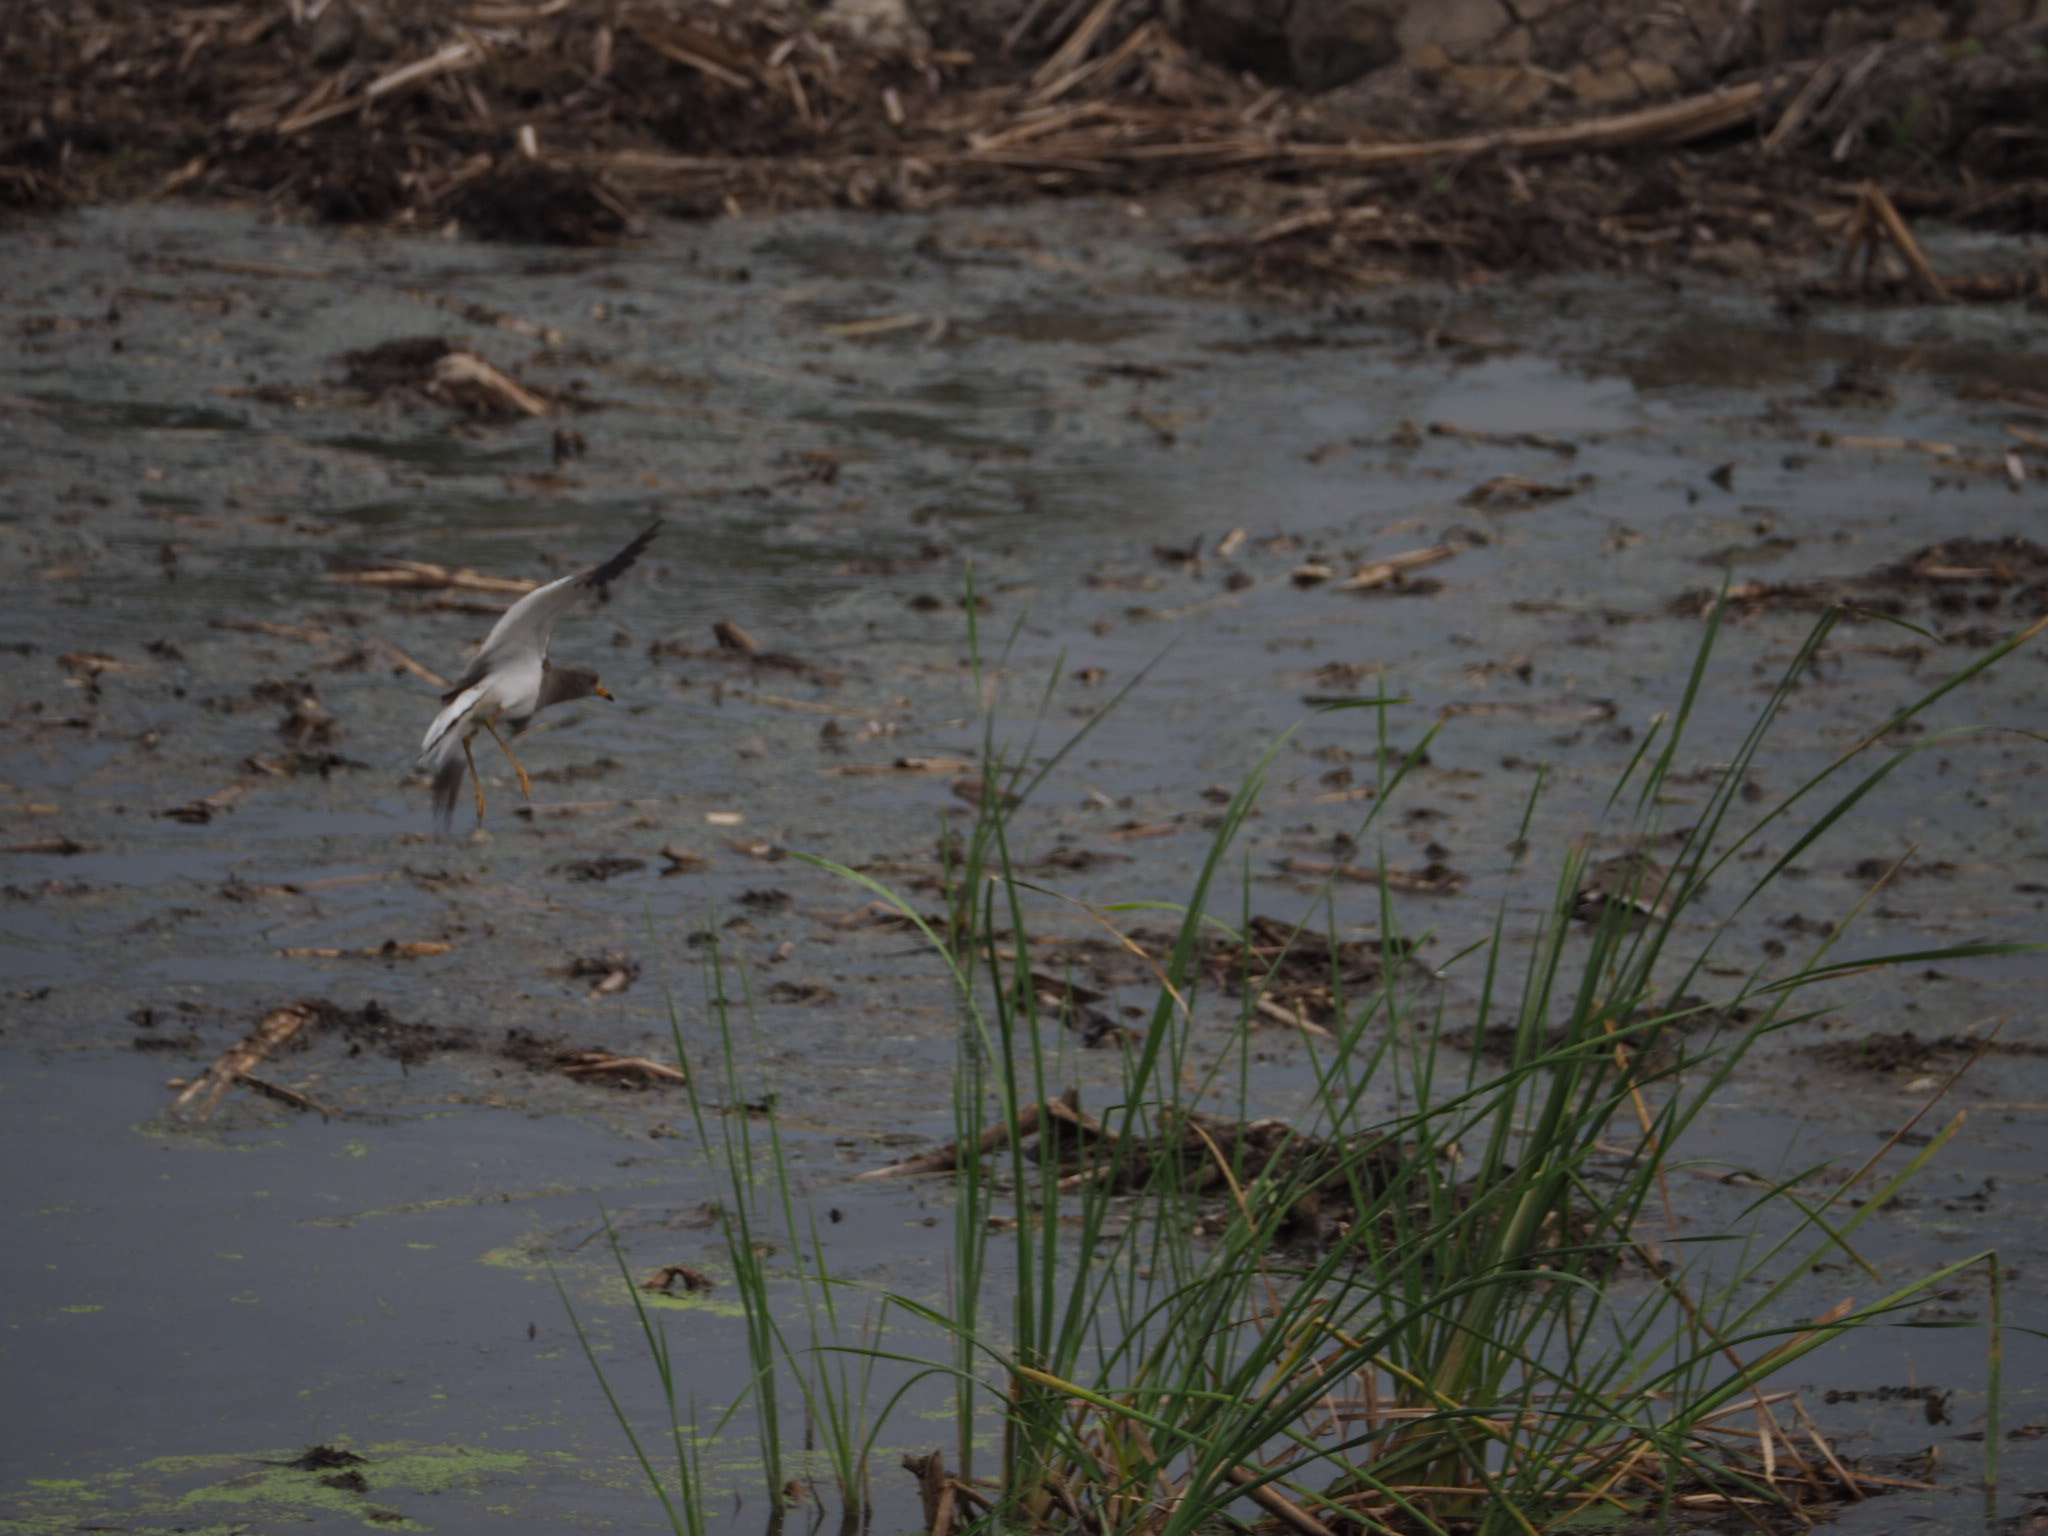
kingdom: Animalia
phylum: Chordata
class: Aves
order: Charadriiformes
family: Charadriidae
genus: Vanellus
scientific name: Vanellus cinereus
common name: Grey-headed lapwing
